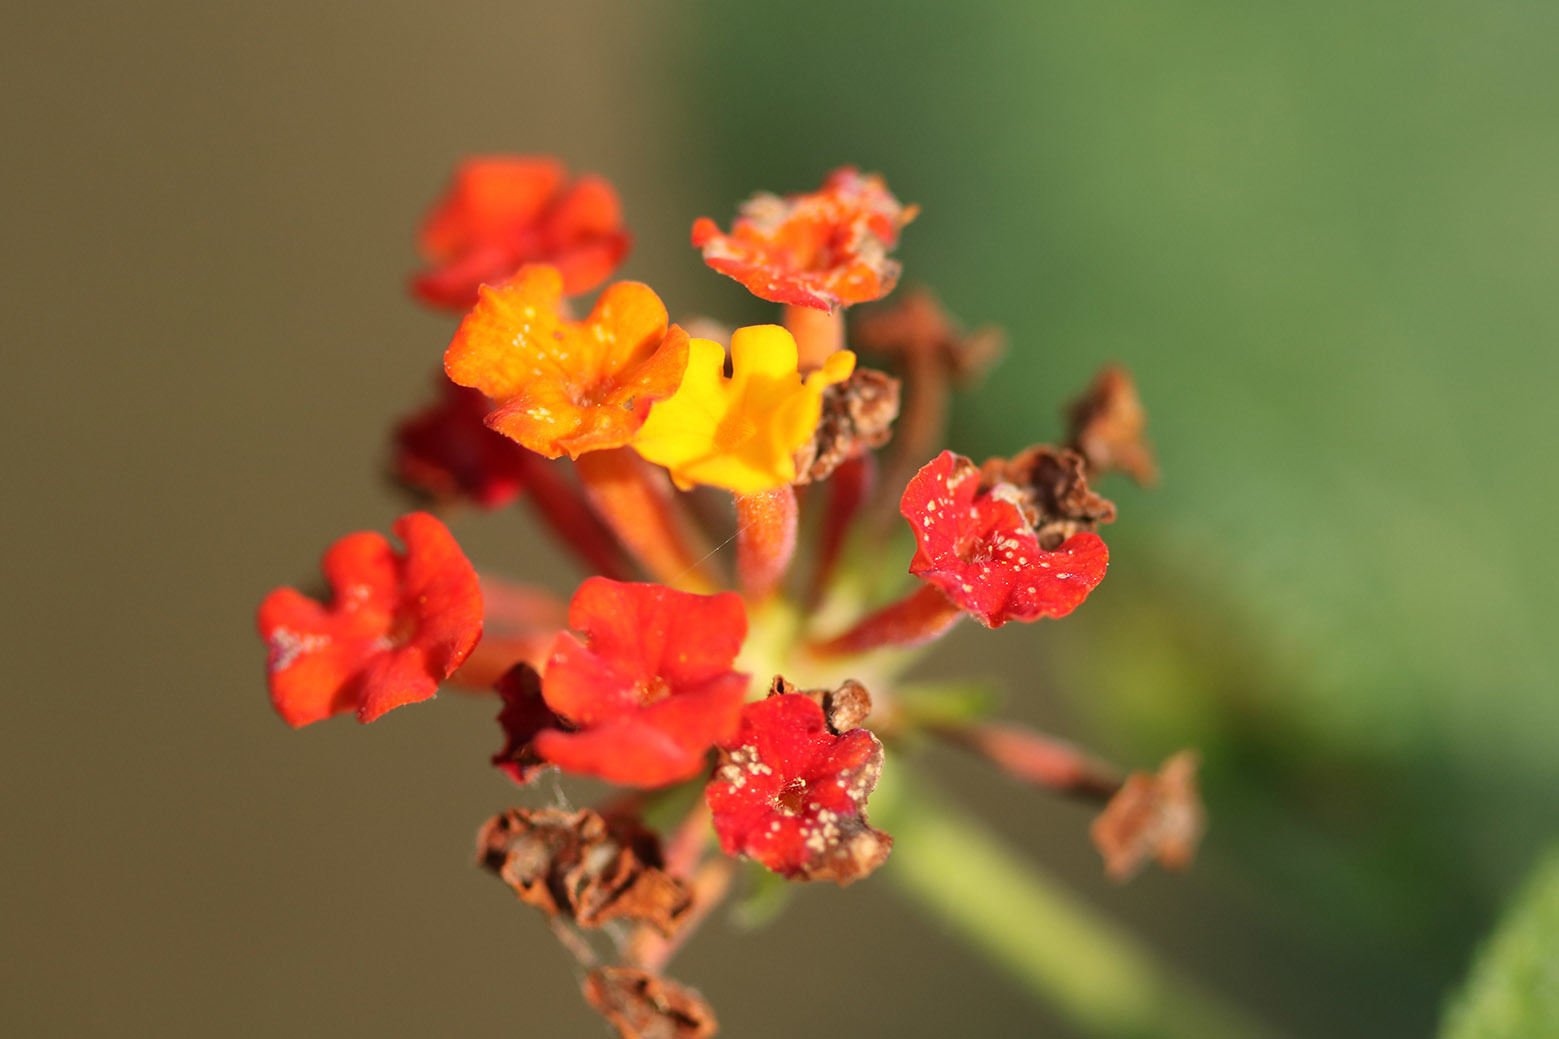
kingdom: Plantae
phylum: Tracheophyta
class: Magnoliopsida
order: Lamiales
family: Verbenaceae
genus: Lantana
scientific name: Lantana camara
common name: Lantana
